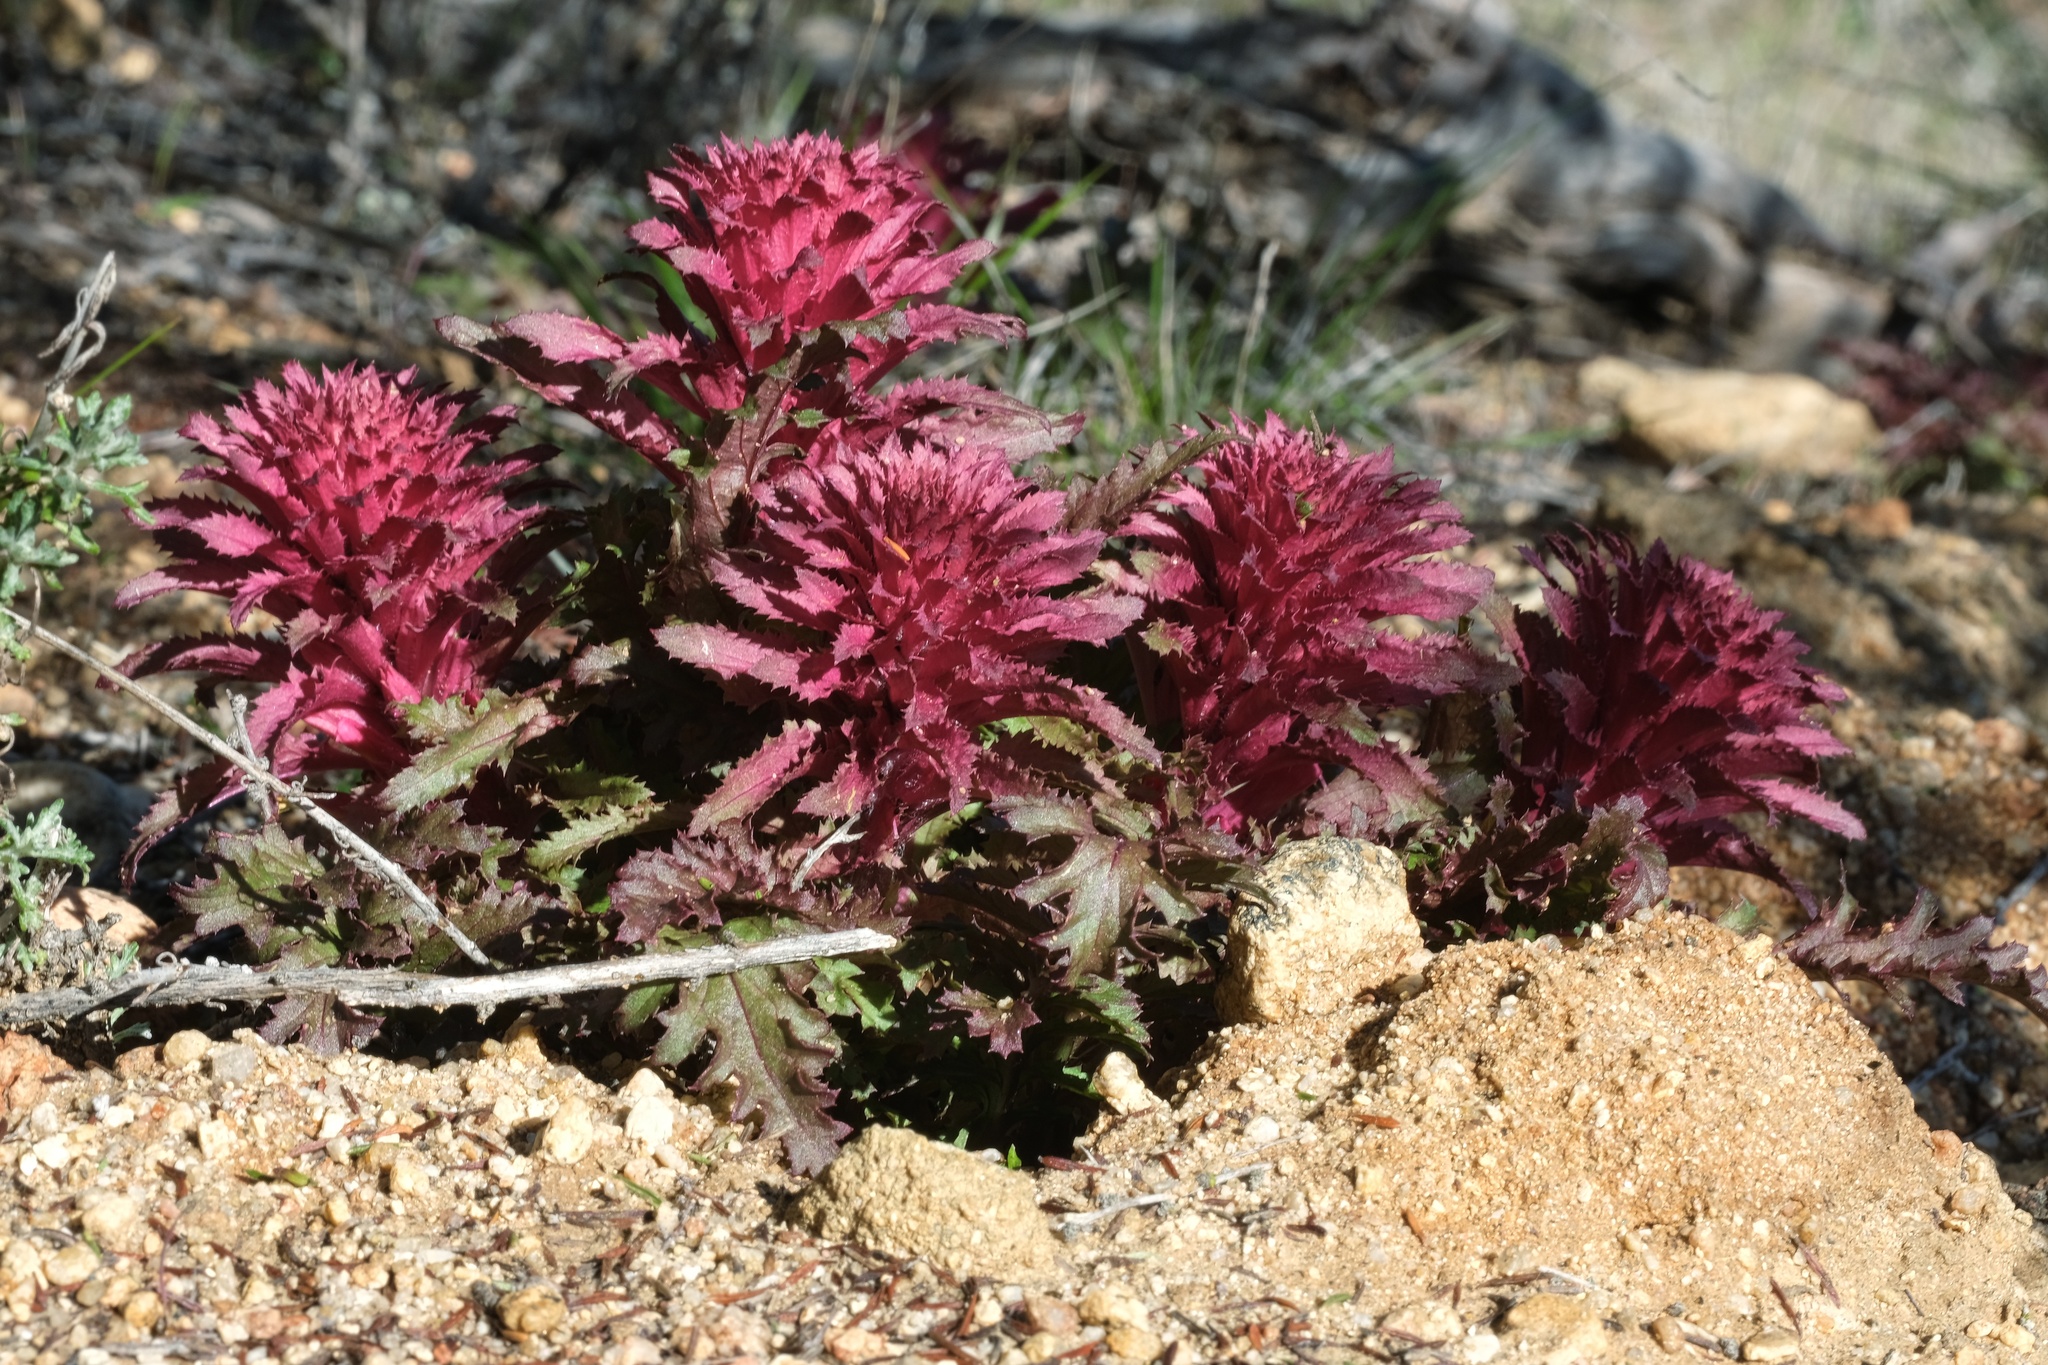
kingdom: Plantae
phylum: Tracheophyta
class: Magnoliopsida
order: Lamiales
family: Orobanchaceae
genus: Pedicularis
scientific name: Pedicularis densiflora
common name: Indian warrior
